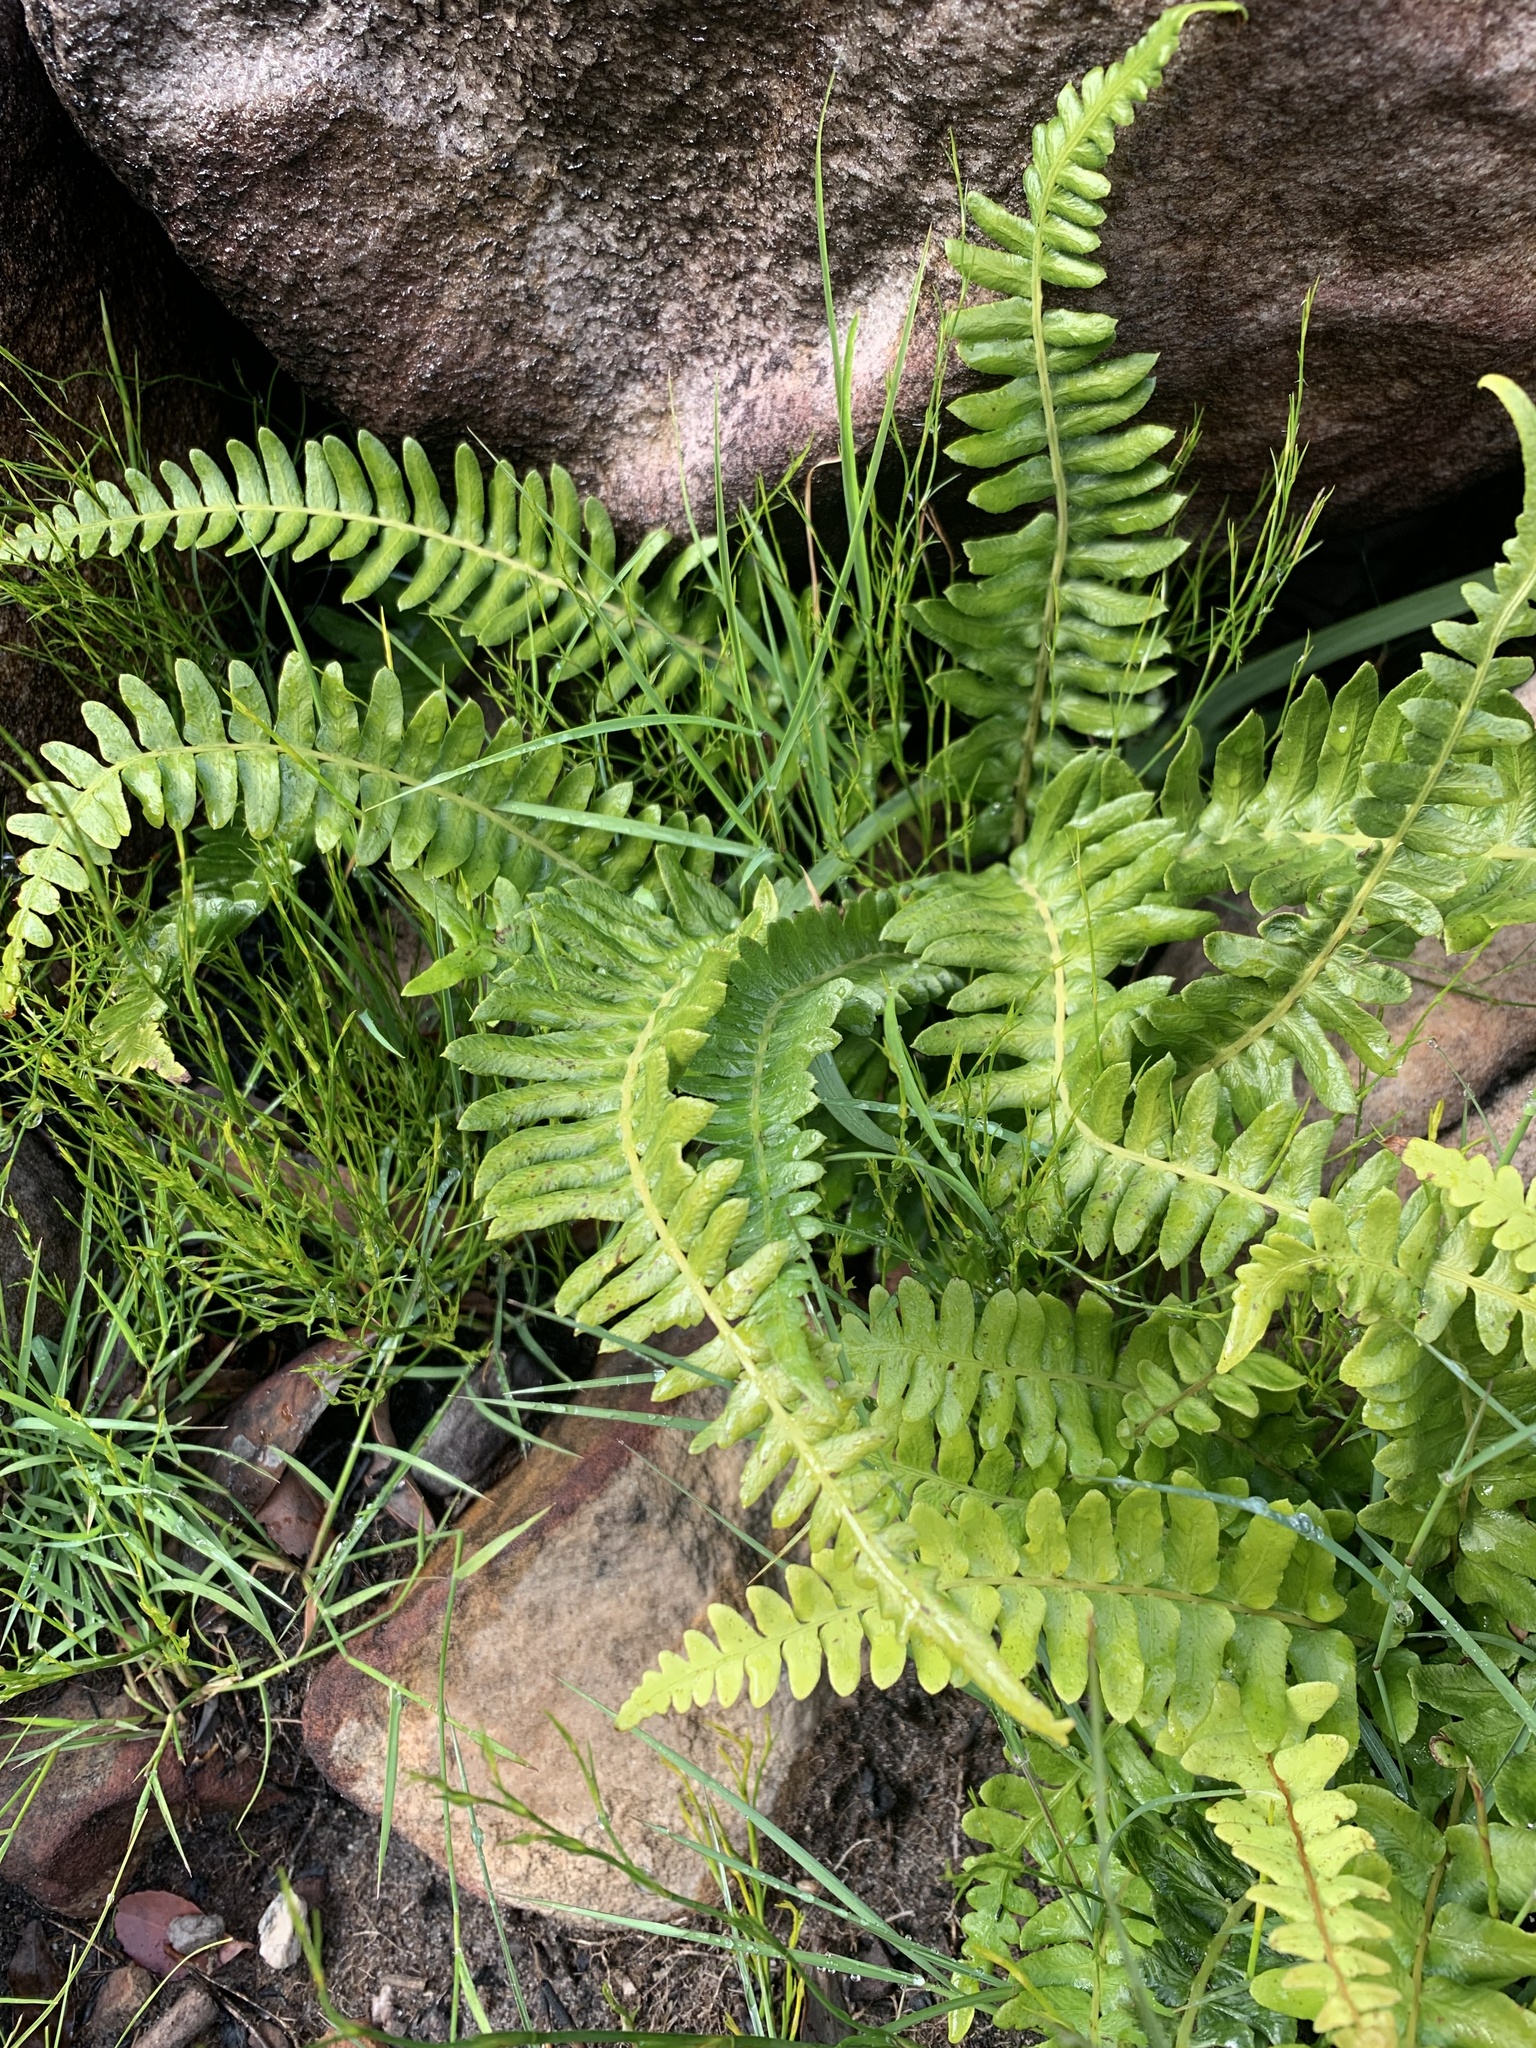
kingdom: Plantae
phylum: Tracheophyta
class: Polypodiopsida
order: Polypodiales
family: Blechnaceae
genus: Blechnum
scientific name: Blechnum punctulatum
